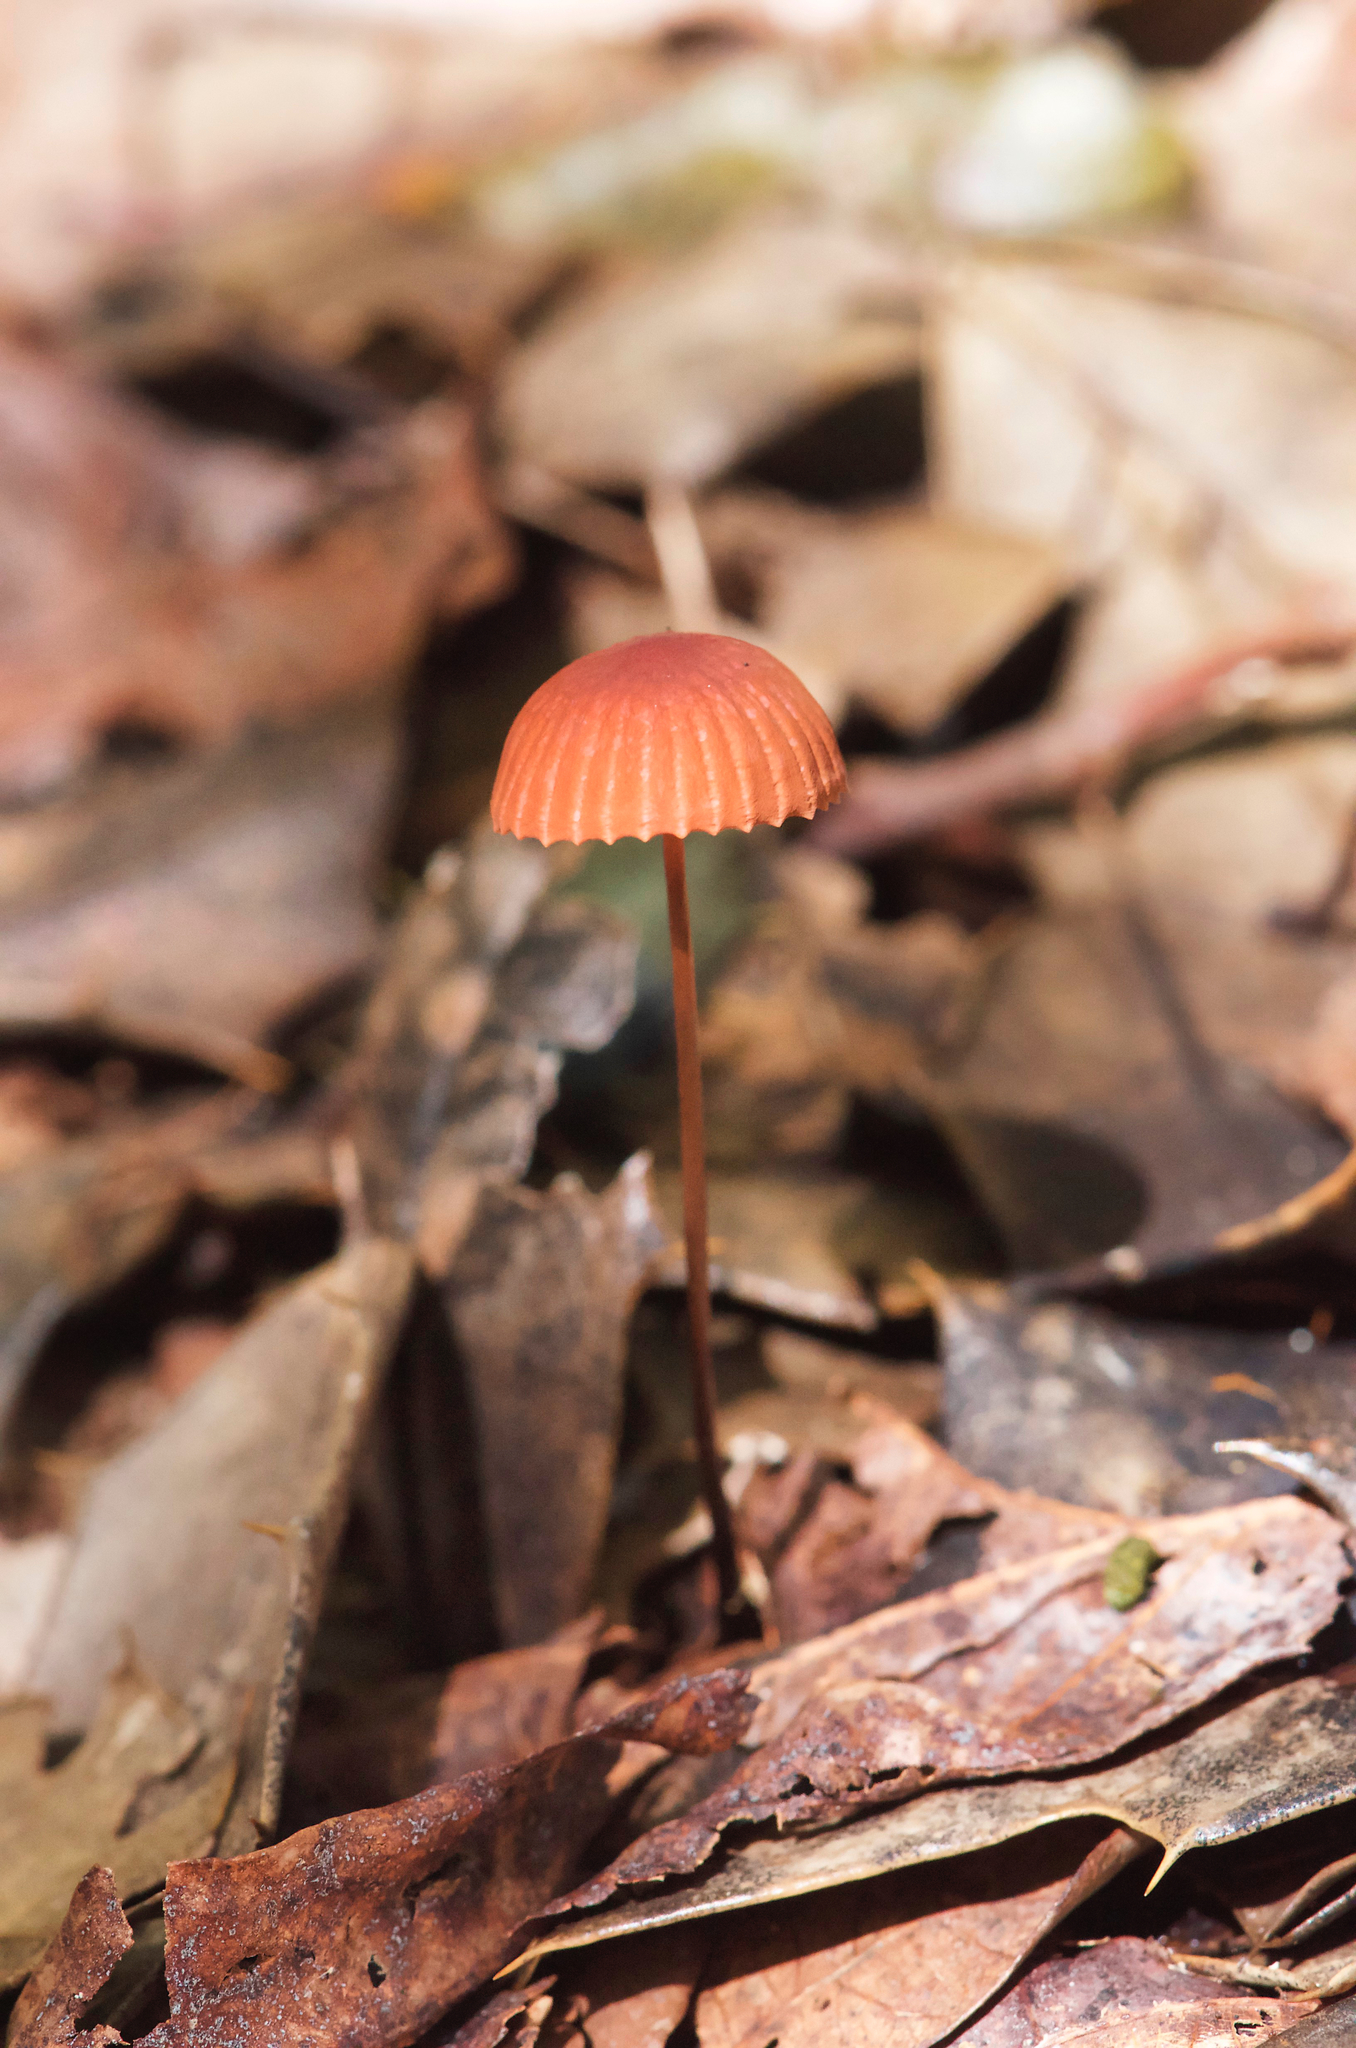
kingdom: Fungi
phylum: Basidiomycota
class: Agaricomycetes
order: Agaricales
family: Marasmiaceae
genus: Marasmius
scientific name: Marasmius siccus
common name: Orange pinwheel
